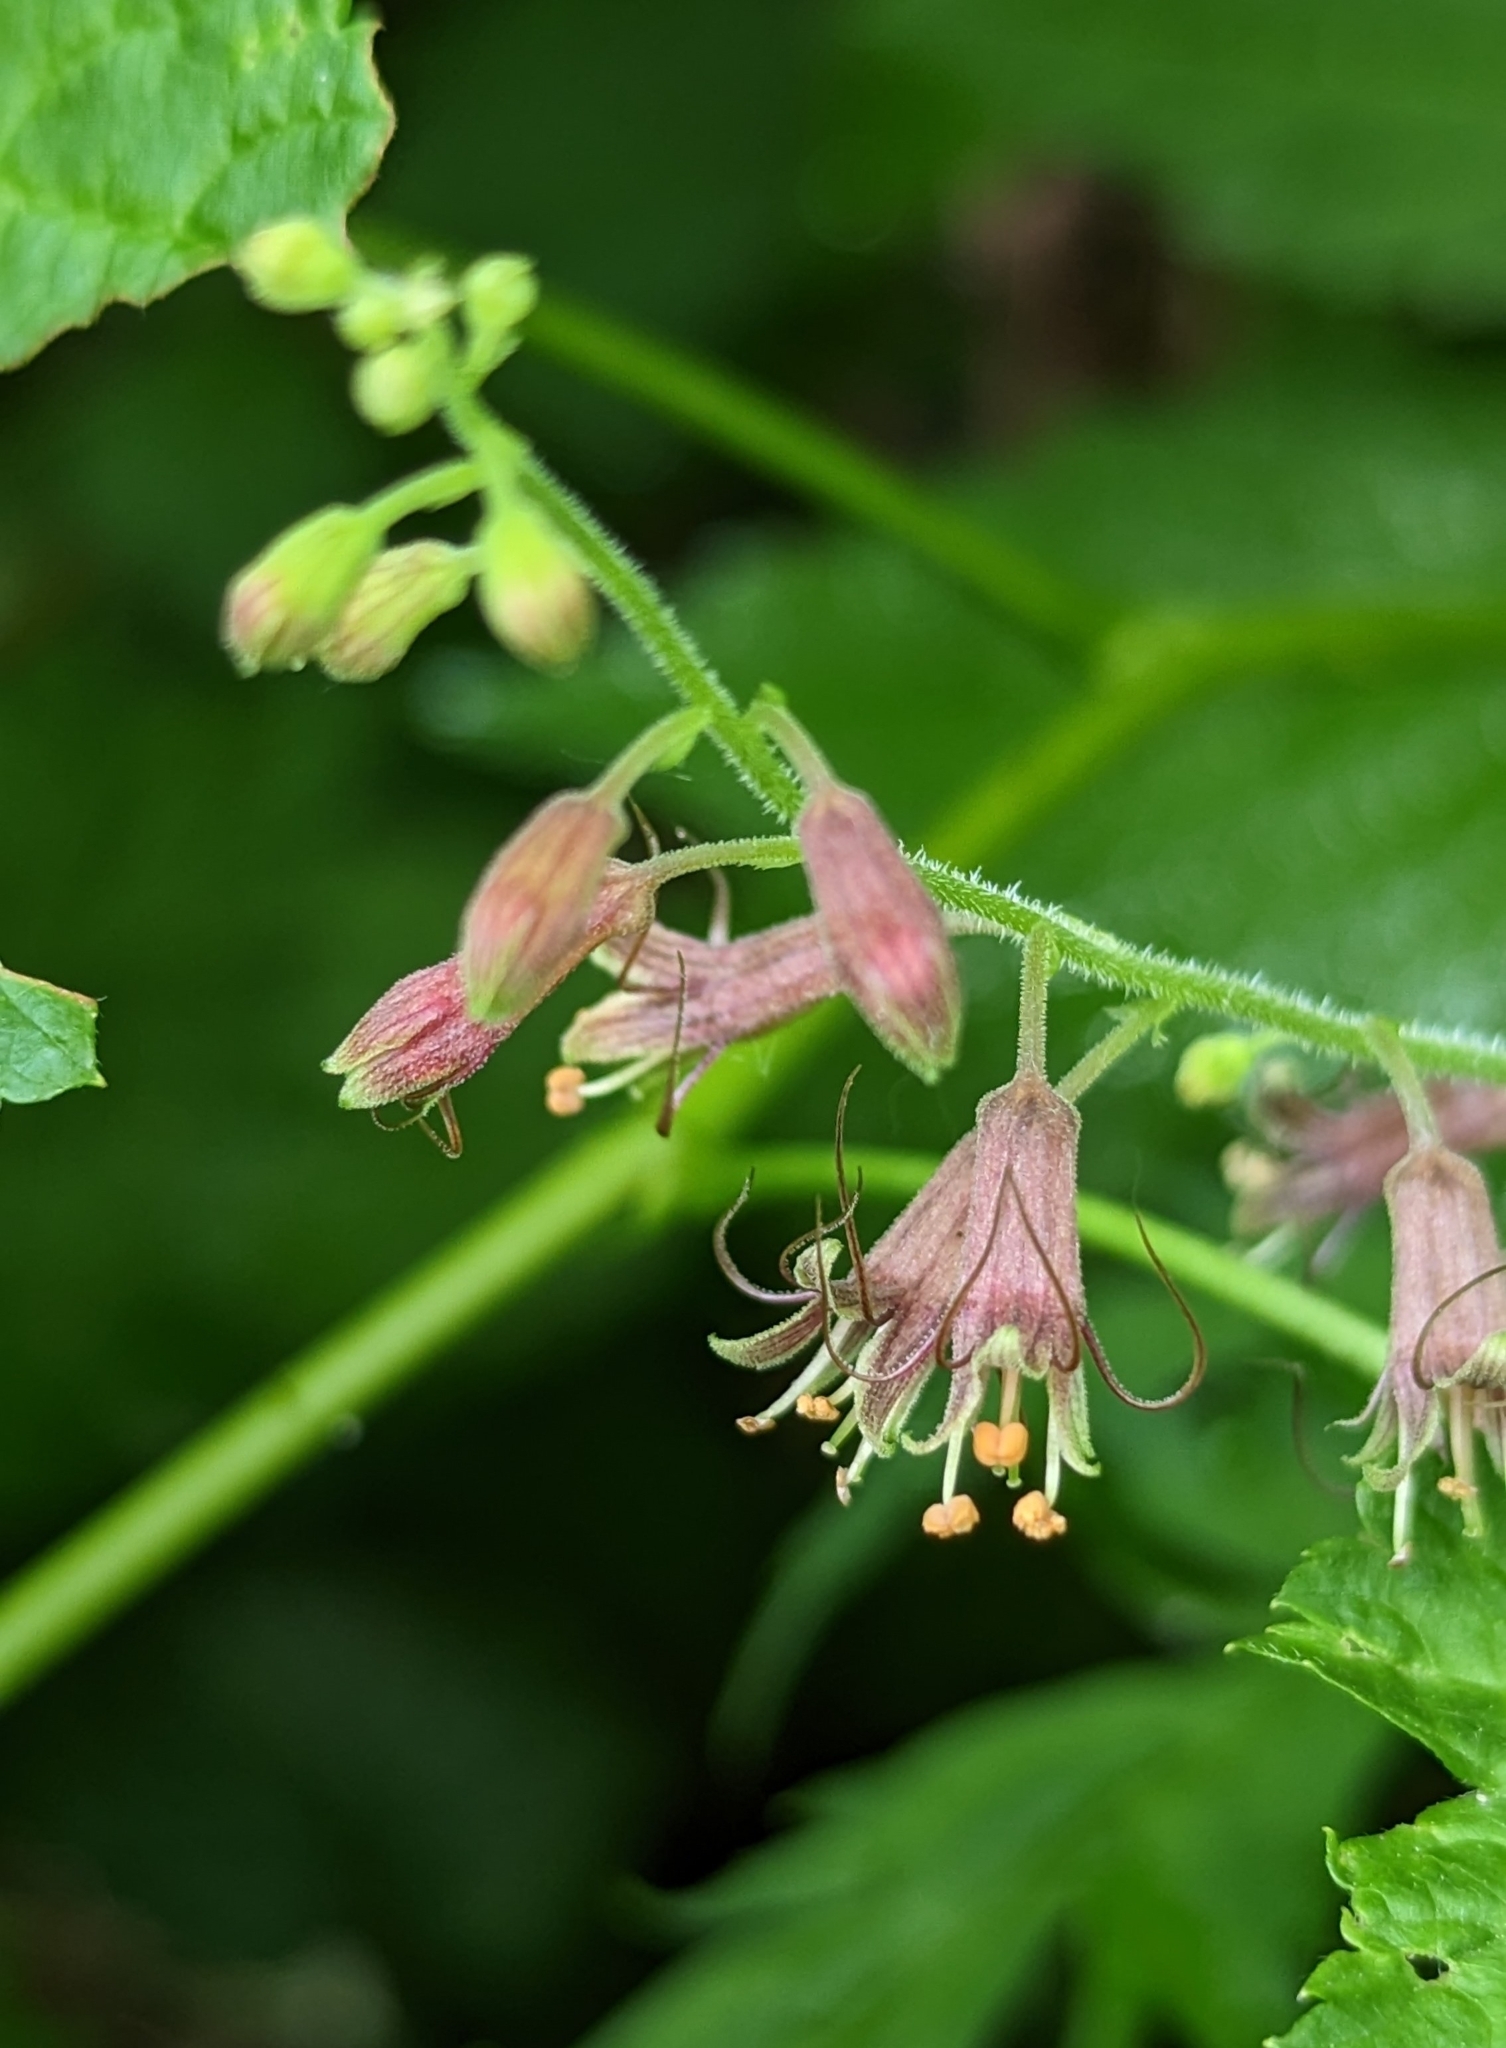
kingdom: Plantae
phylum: Tracheophyta
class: Magnoliopsida
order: Saxifragales
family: Saxifragaceae
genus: Tolmiea
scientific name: Tolmiea menziesii
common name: Pick-a-back-plant
